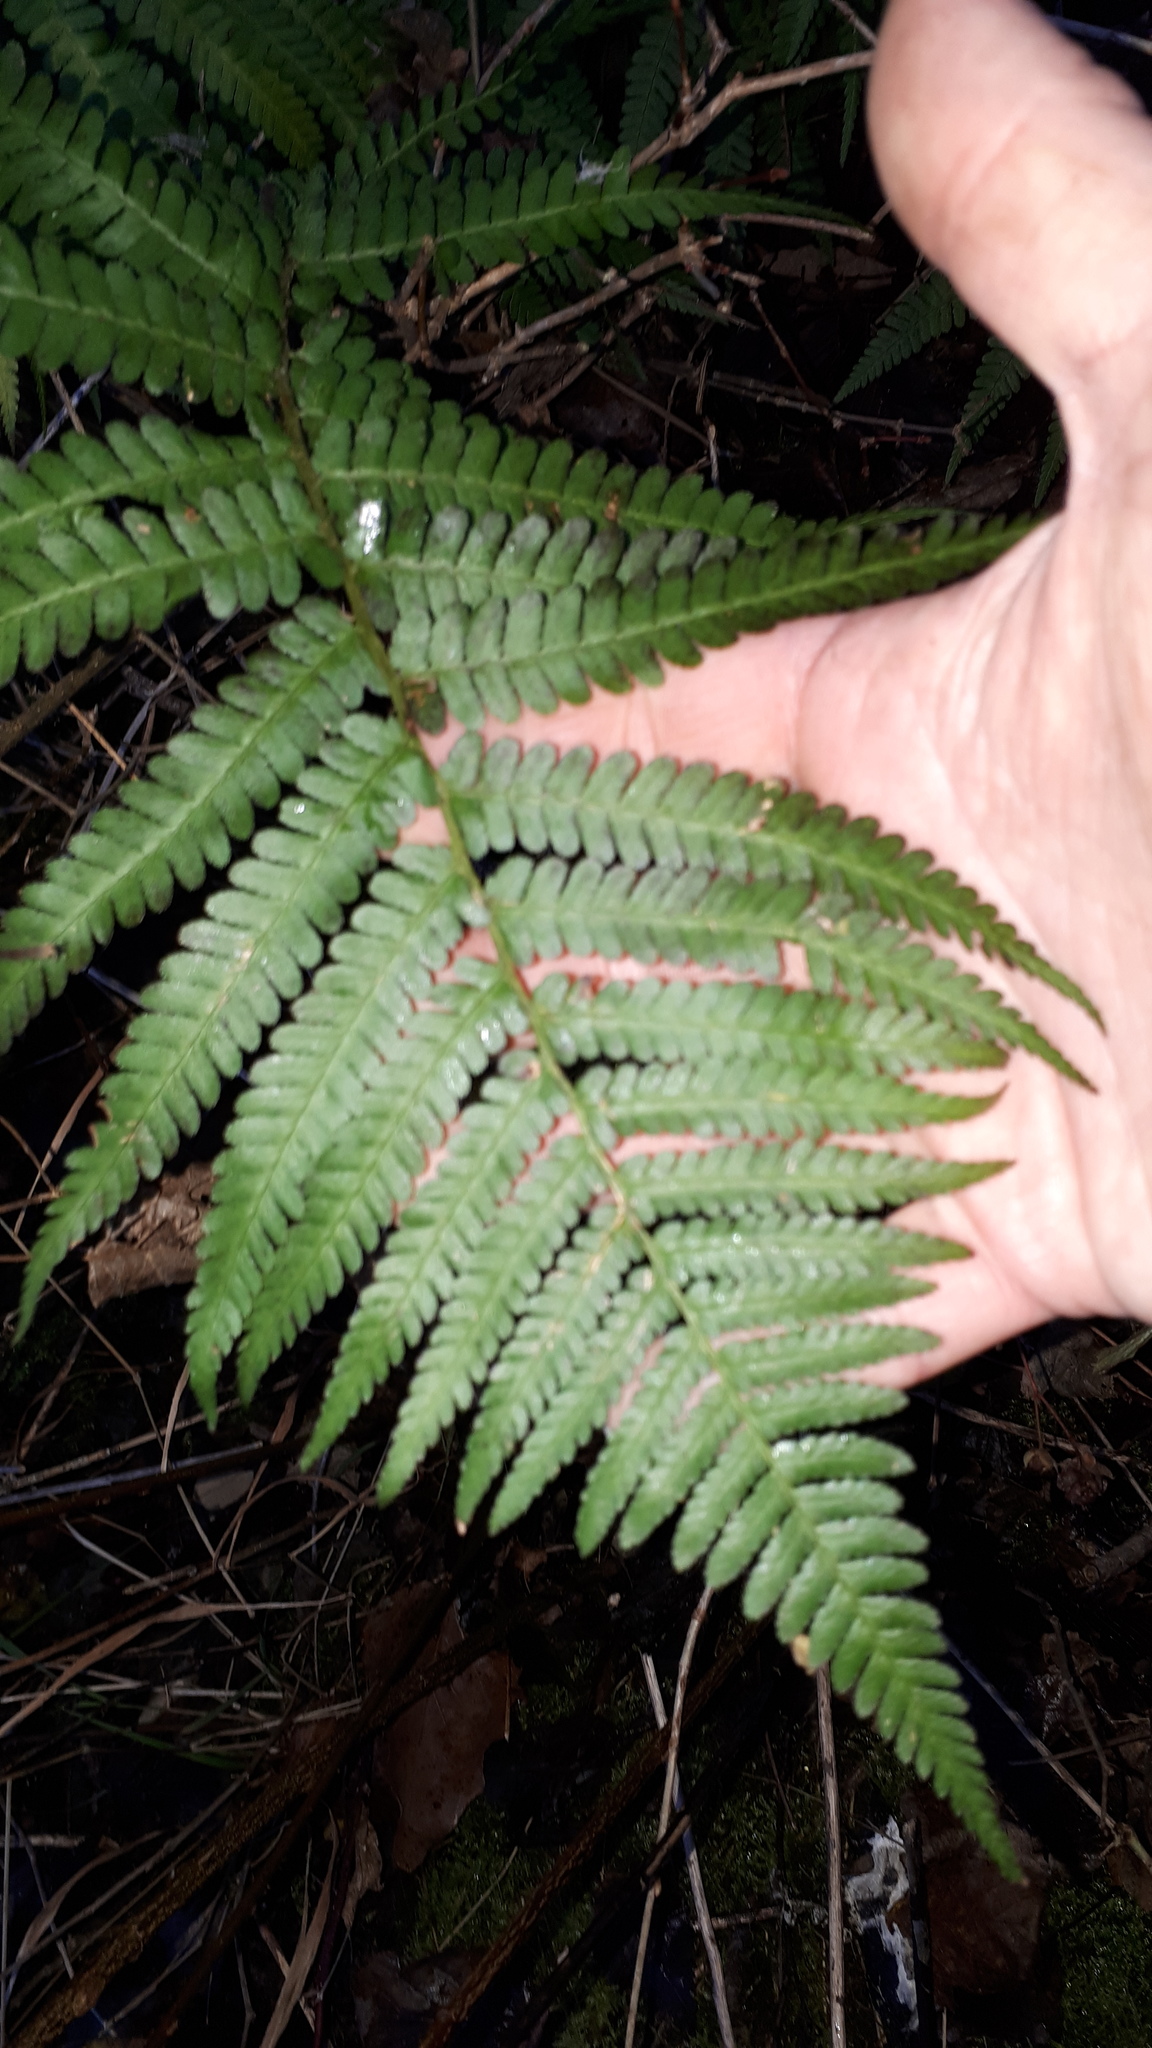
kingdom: Plantae
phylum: Tracheophyta
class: Polypodiopsida
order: Polypodiales
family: Dryopteridaceae
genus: Dryopteris
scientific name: Dryopteris filix-mas
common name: Male fern
